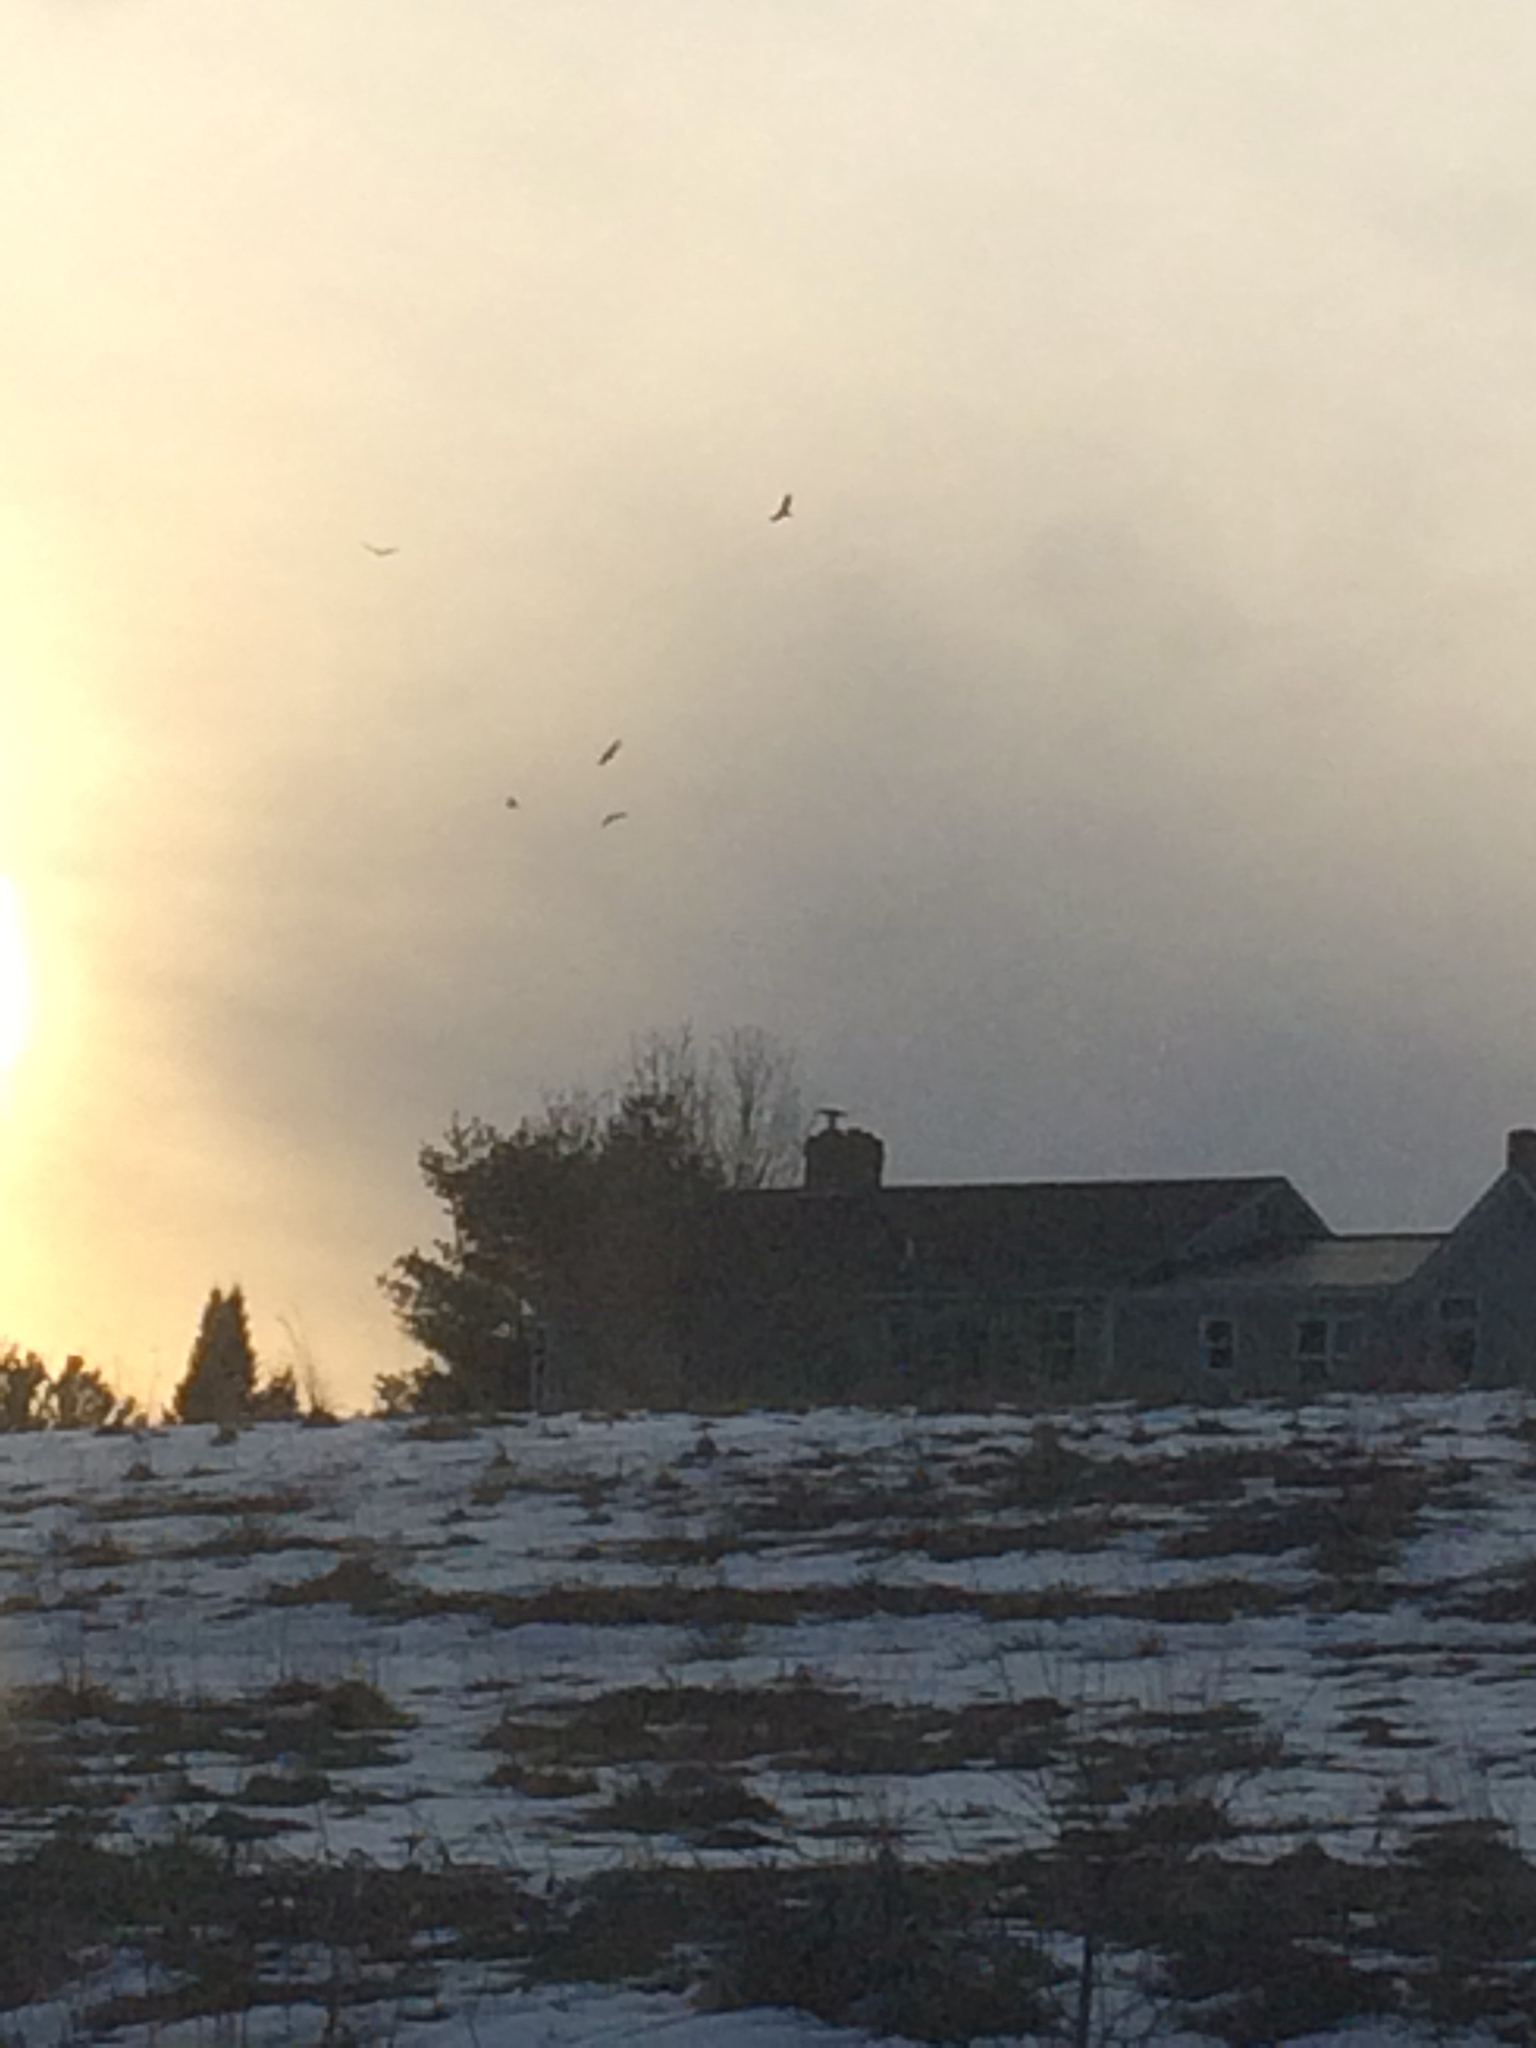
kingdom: Animalia
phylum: Chordata
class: Aves
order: Accipitriformes
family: Cathartidae
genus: Cathartes
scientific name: Cathartes aura
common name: Turkey vulture
